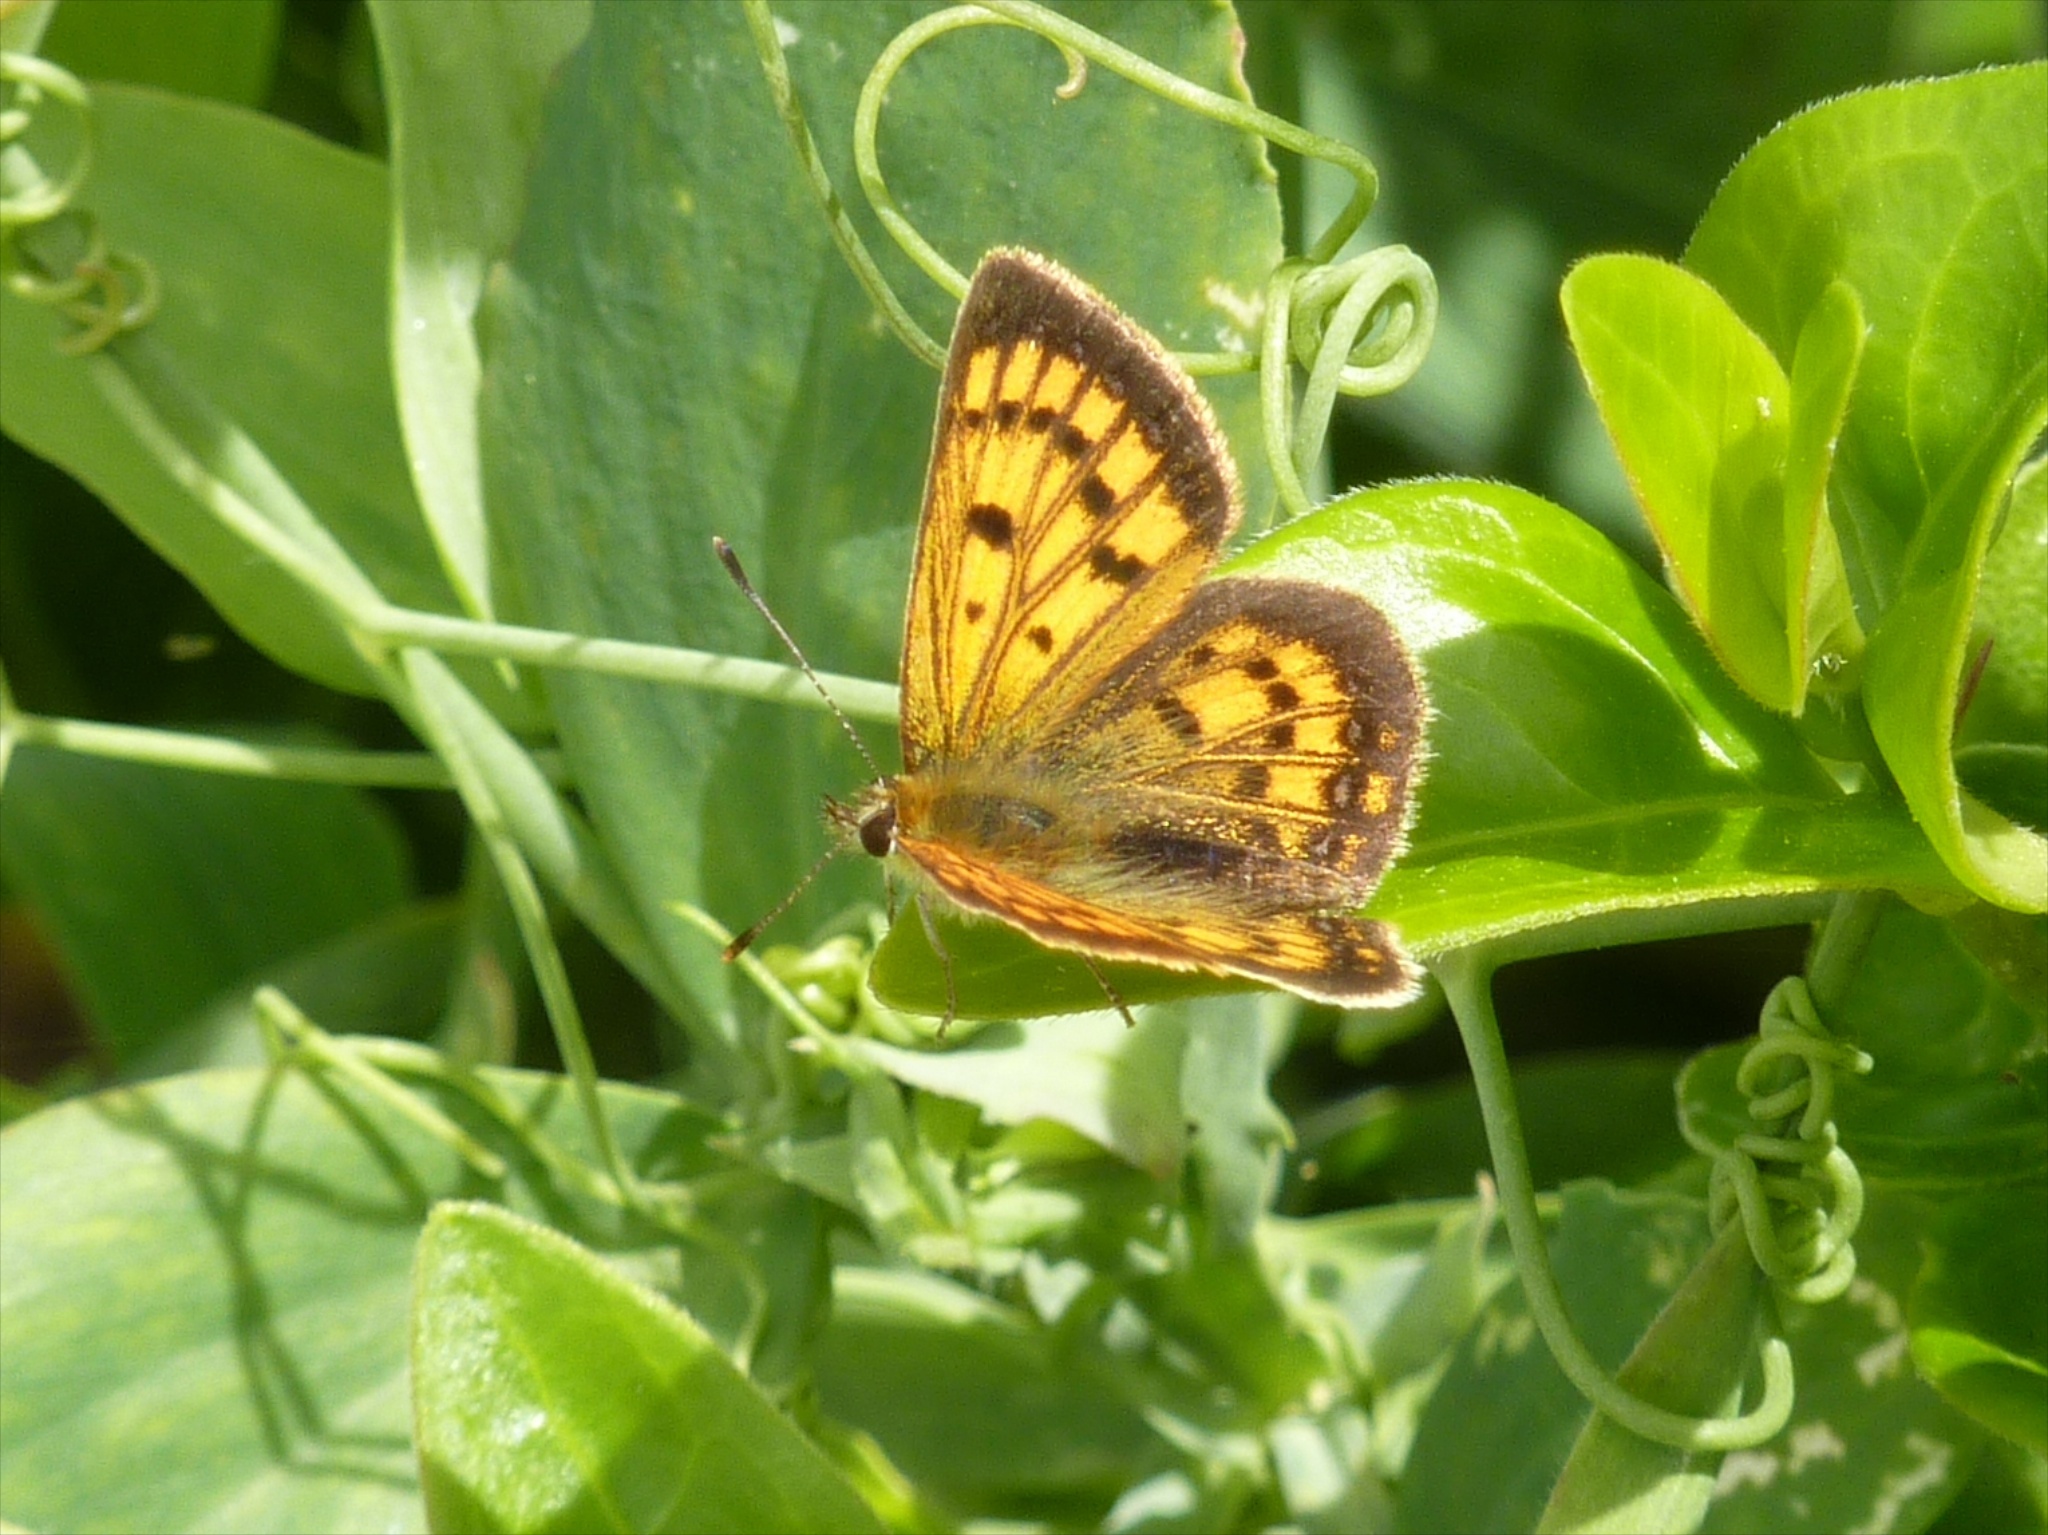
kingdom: Animalia
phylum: Arthropoda
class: Insecta
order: Lepidoptera
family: Lycaenidae
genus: Lycaena
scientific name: Lycaena salustius
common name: North island coastal copper
